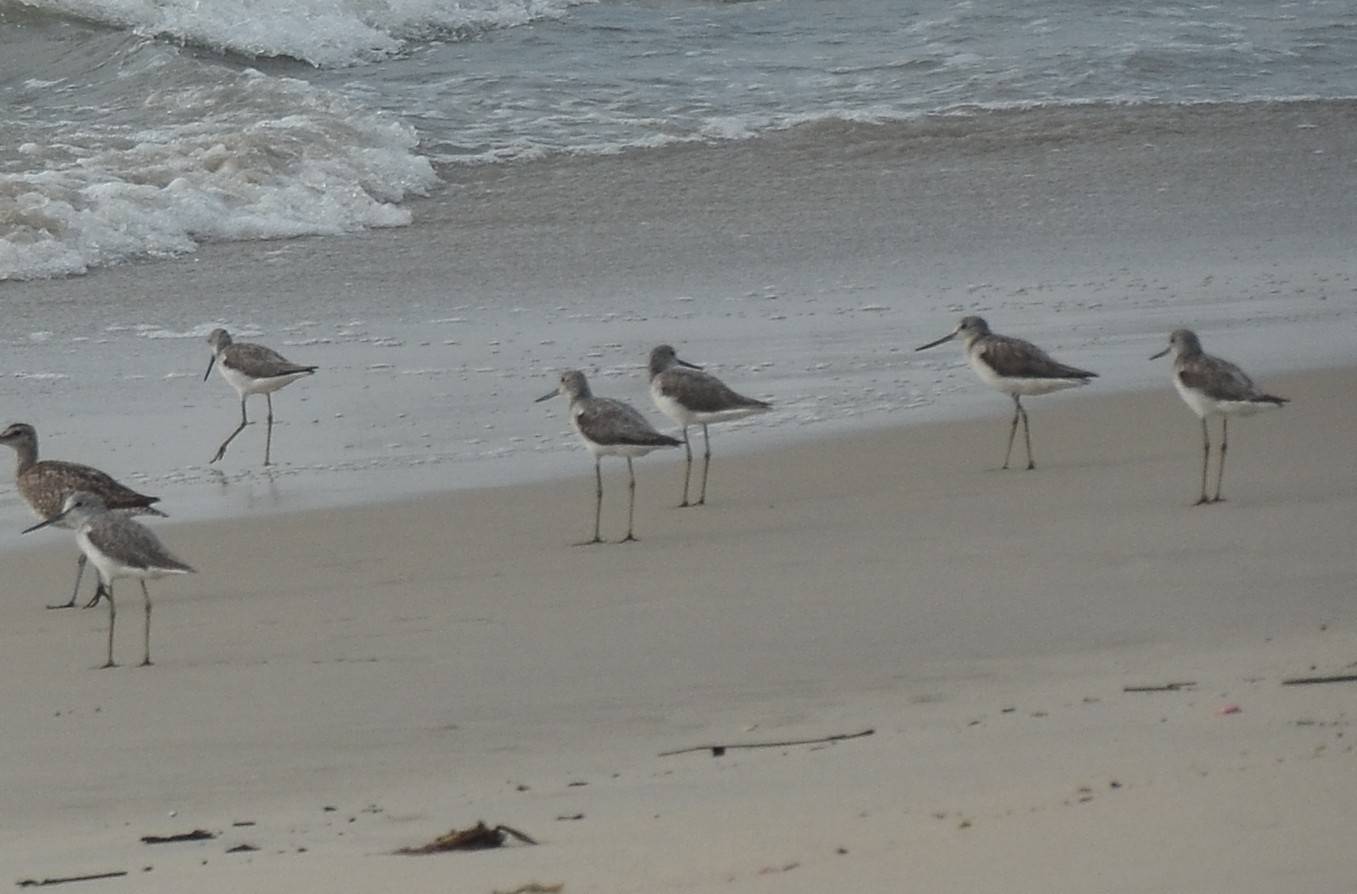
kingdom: Animalia
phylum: Chordata
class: Aves
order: Charadriiformes
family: Scolopacidae
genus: Tringa
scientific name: Tringa nebularia
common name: Common greenshank
